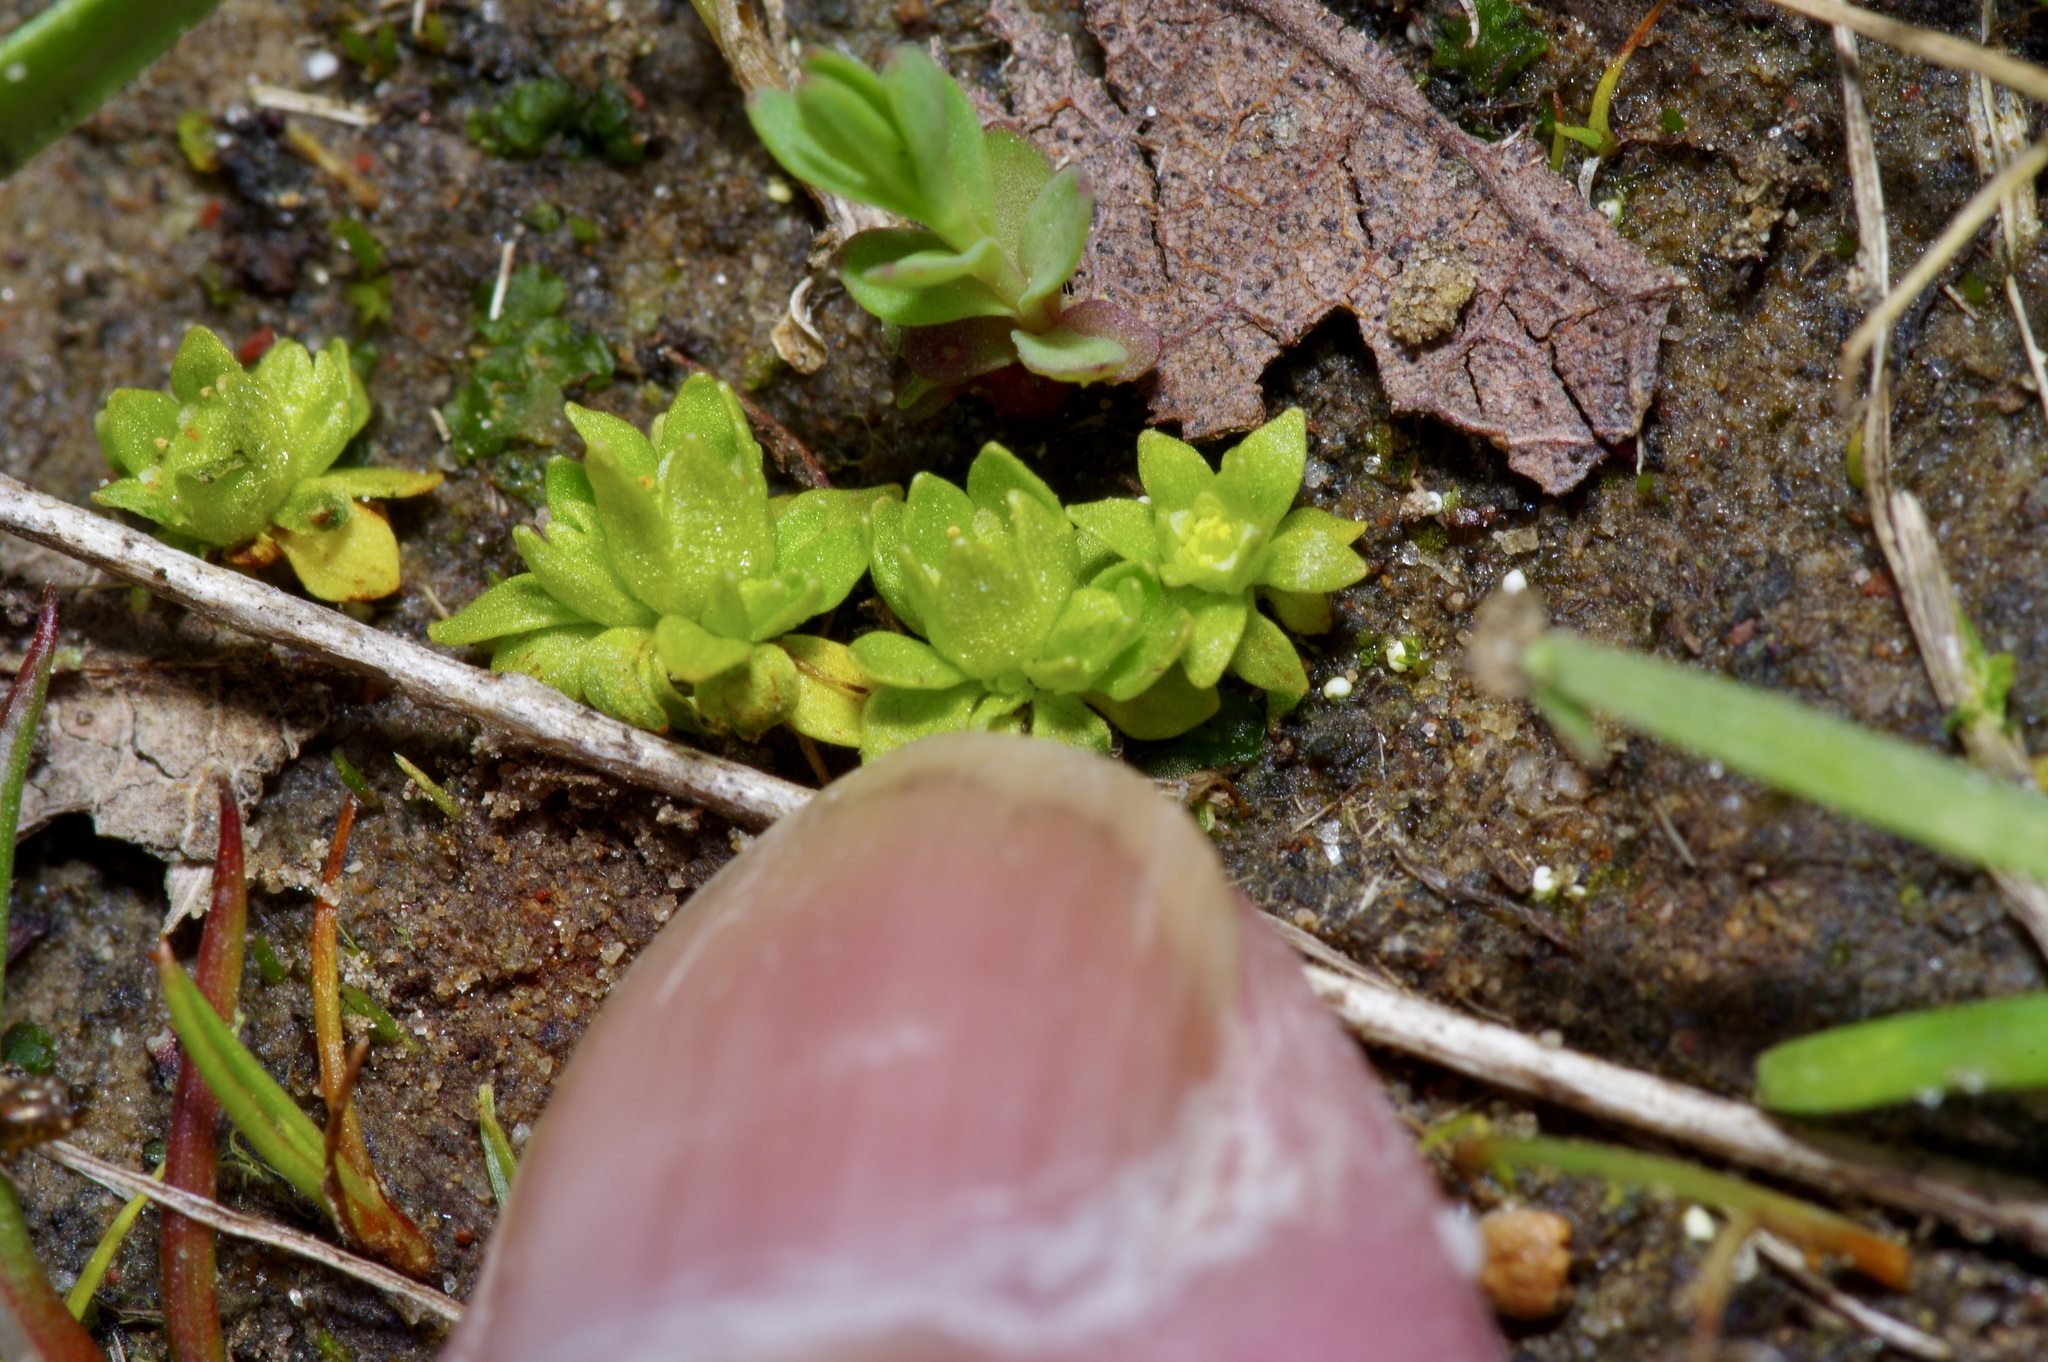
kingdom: Plantae
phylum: Tracheophyta
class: Magnoliopsida
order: Celastrales
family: Parnassiaceae
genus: Lepuropetalon
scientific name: Lepuropetalon spathulatum
